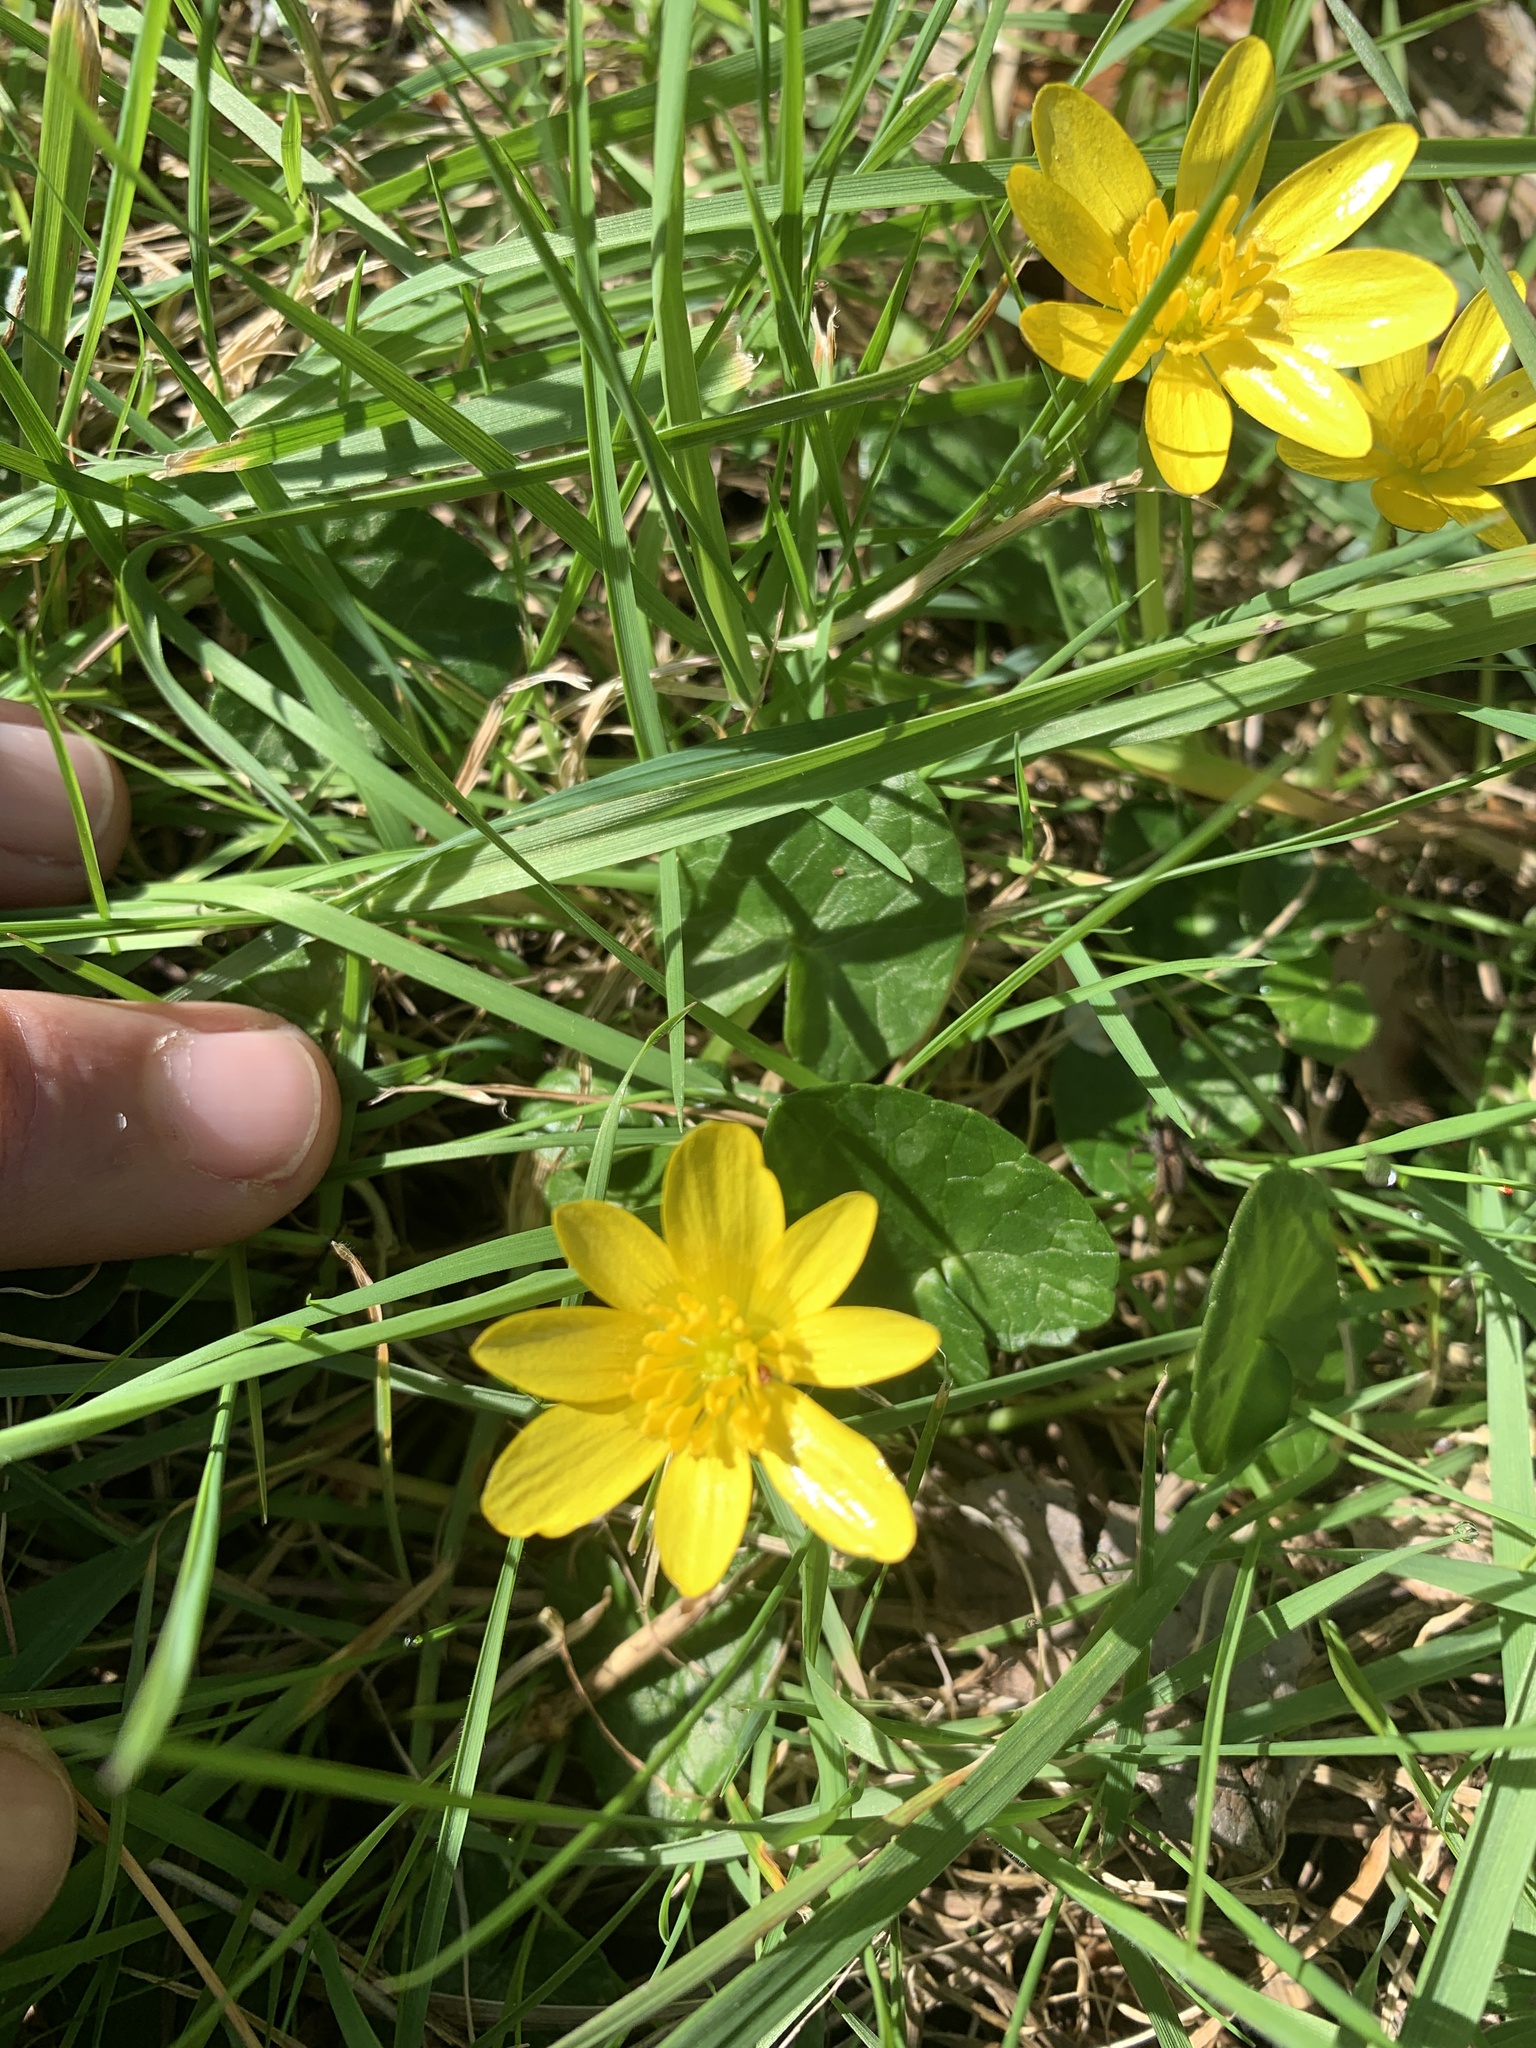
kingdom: Plantae
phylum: Tracheophyta
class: Magnoliopsida
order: Ranunculales
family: Ranunculaceae
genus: Ficaria
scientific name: Ficaria verna
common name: Lesser celandine
